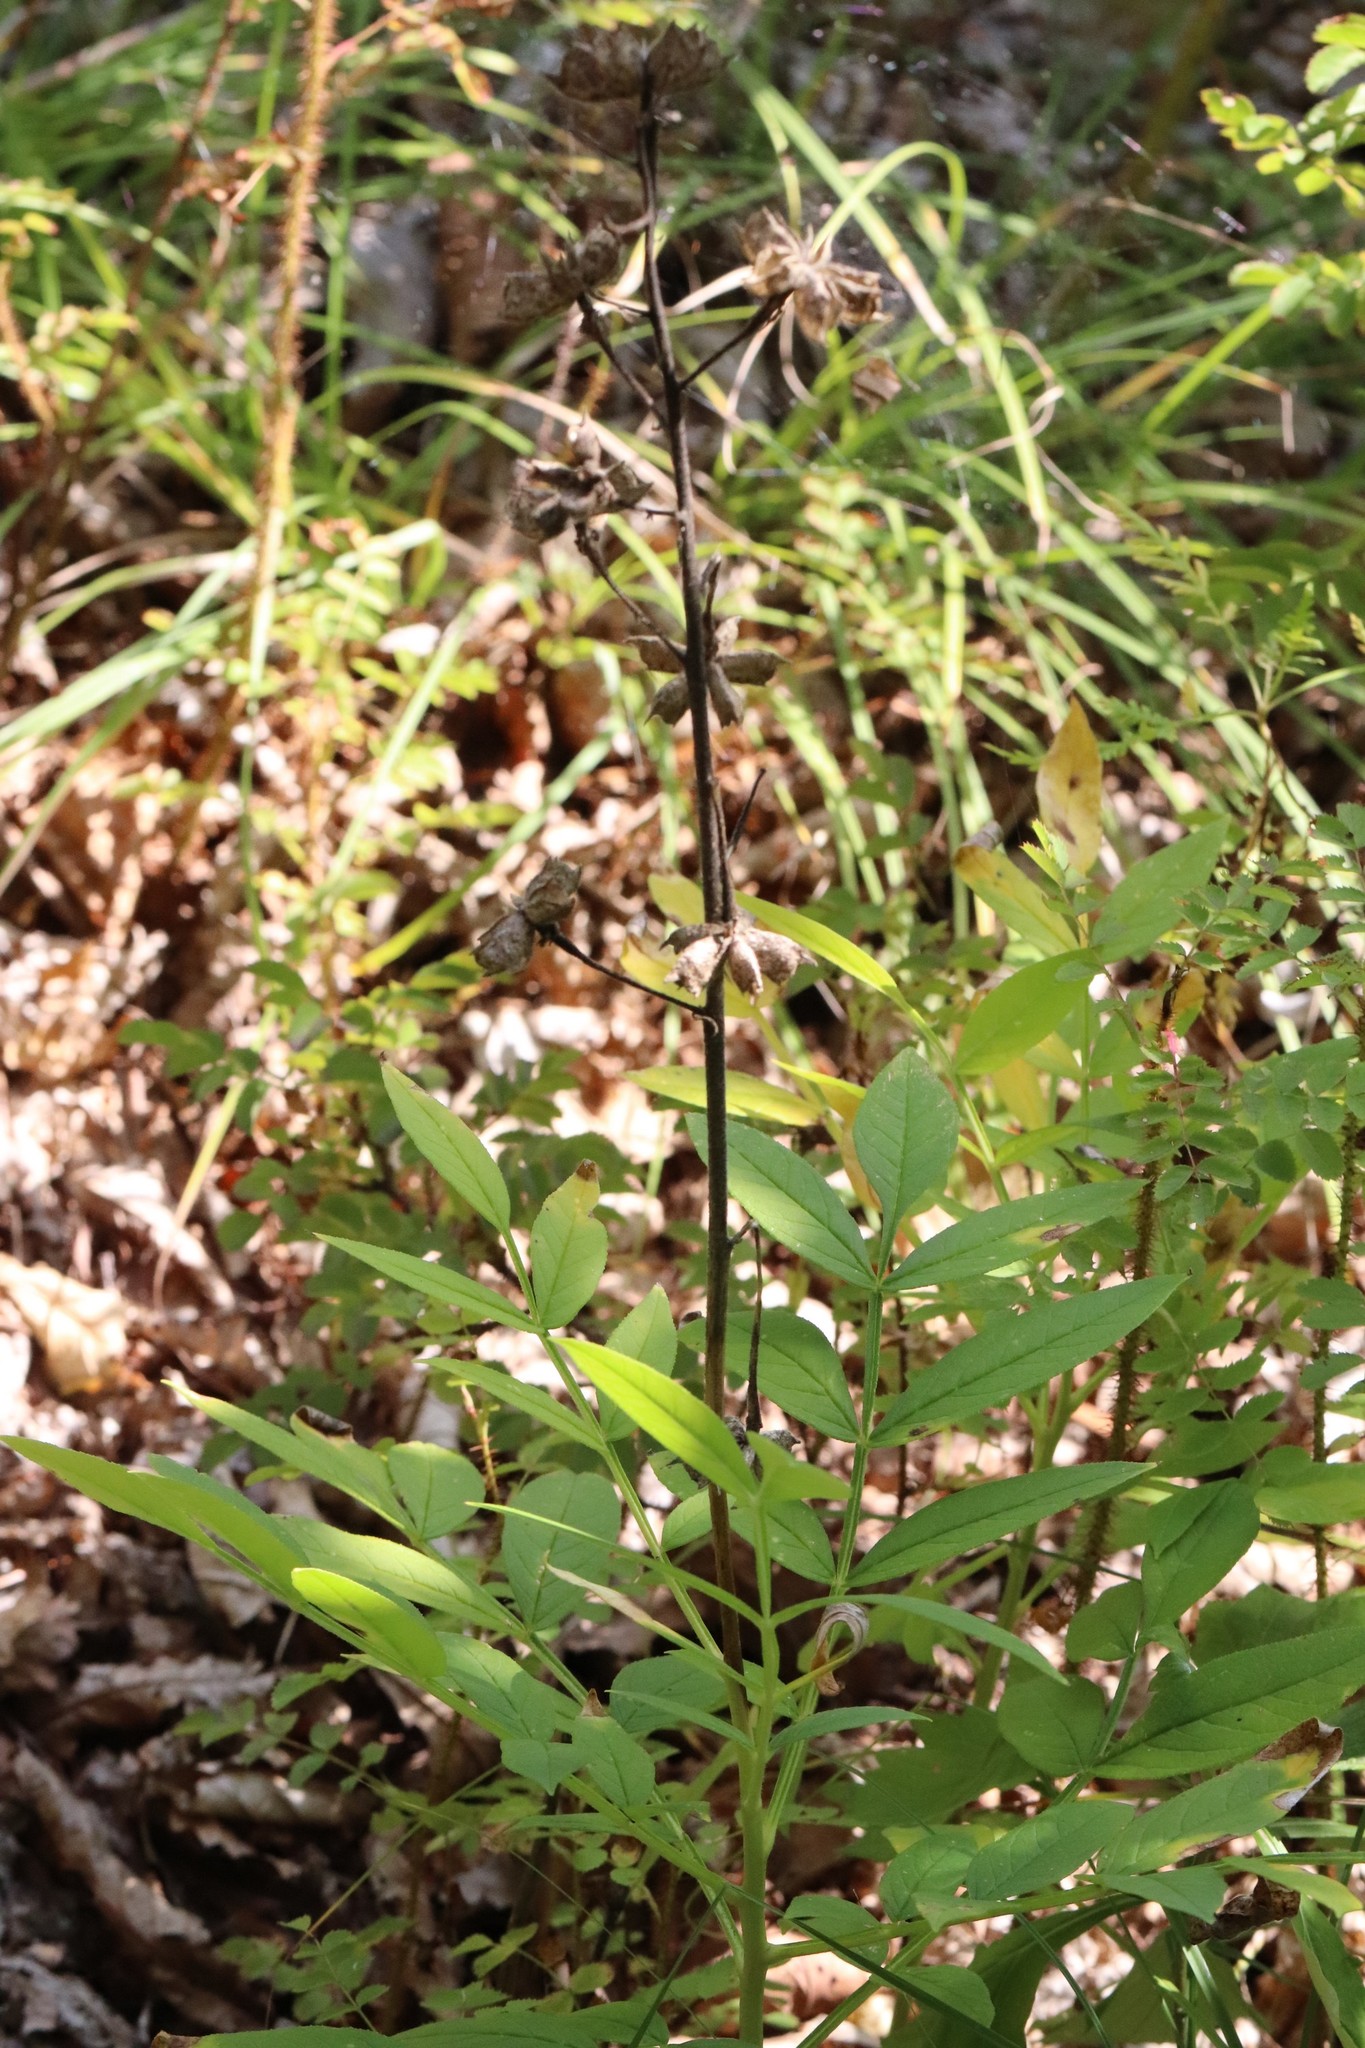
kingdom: Plantae
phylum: Tracheophyta
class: Magnoliopsida
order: Sapindales
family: Rutaceae
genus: Dictamnus
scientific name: Dictamnus dasycarpus
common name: Dense-fruit dittany
